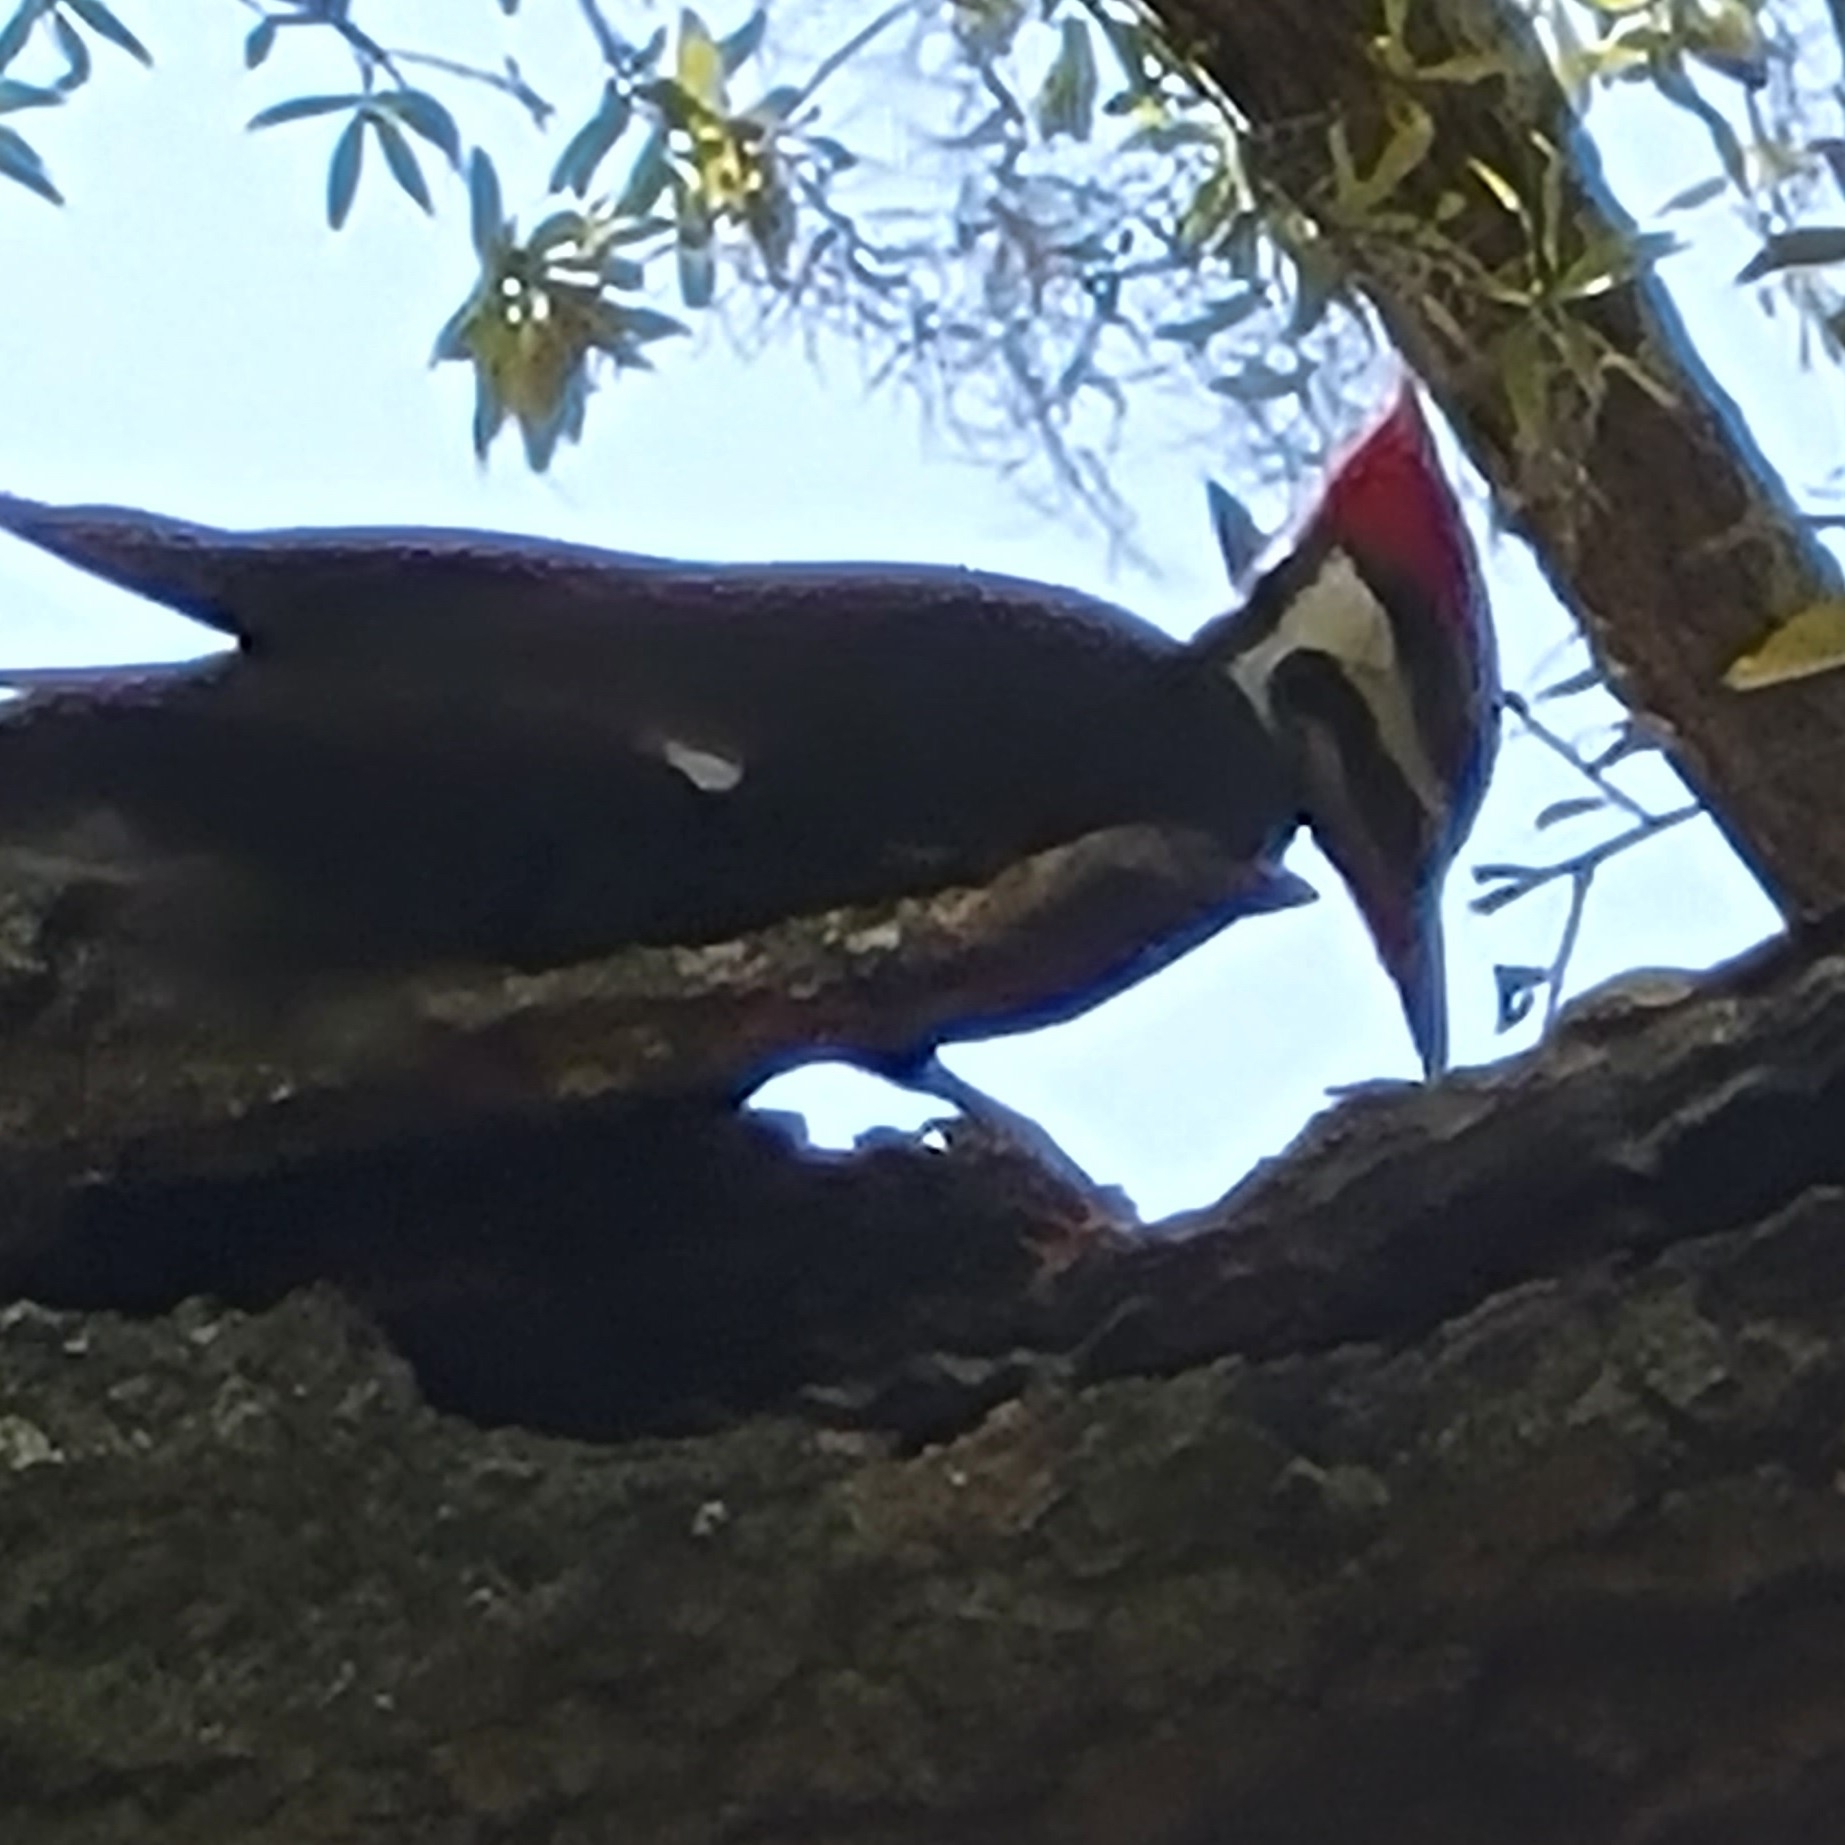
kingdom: Animalia
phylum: Chordata
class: Aves
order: Piciformes
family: Picidae
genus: Dryocopus
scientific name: Dryocopus pileatus
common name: Pileated woodpecker
